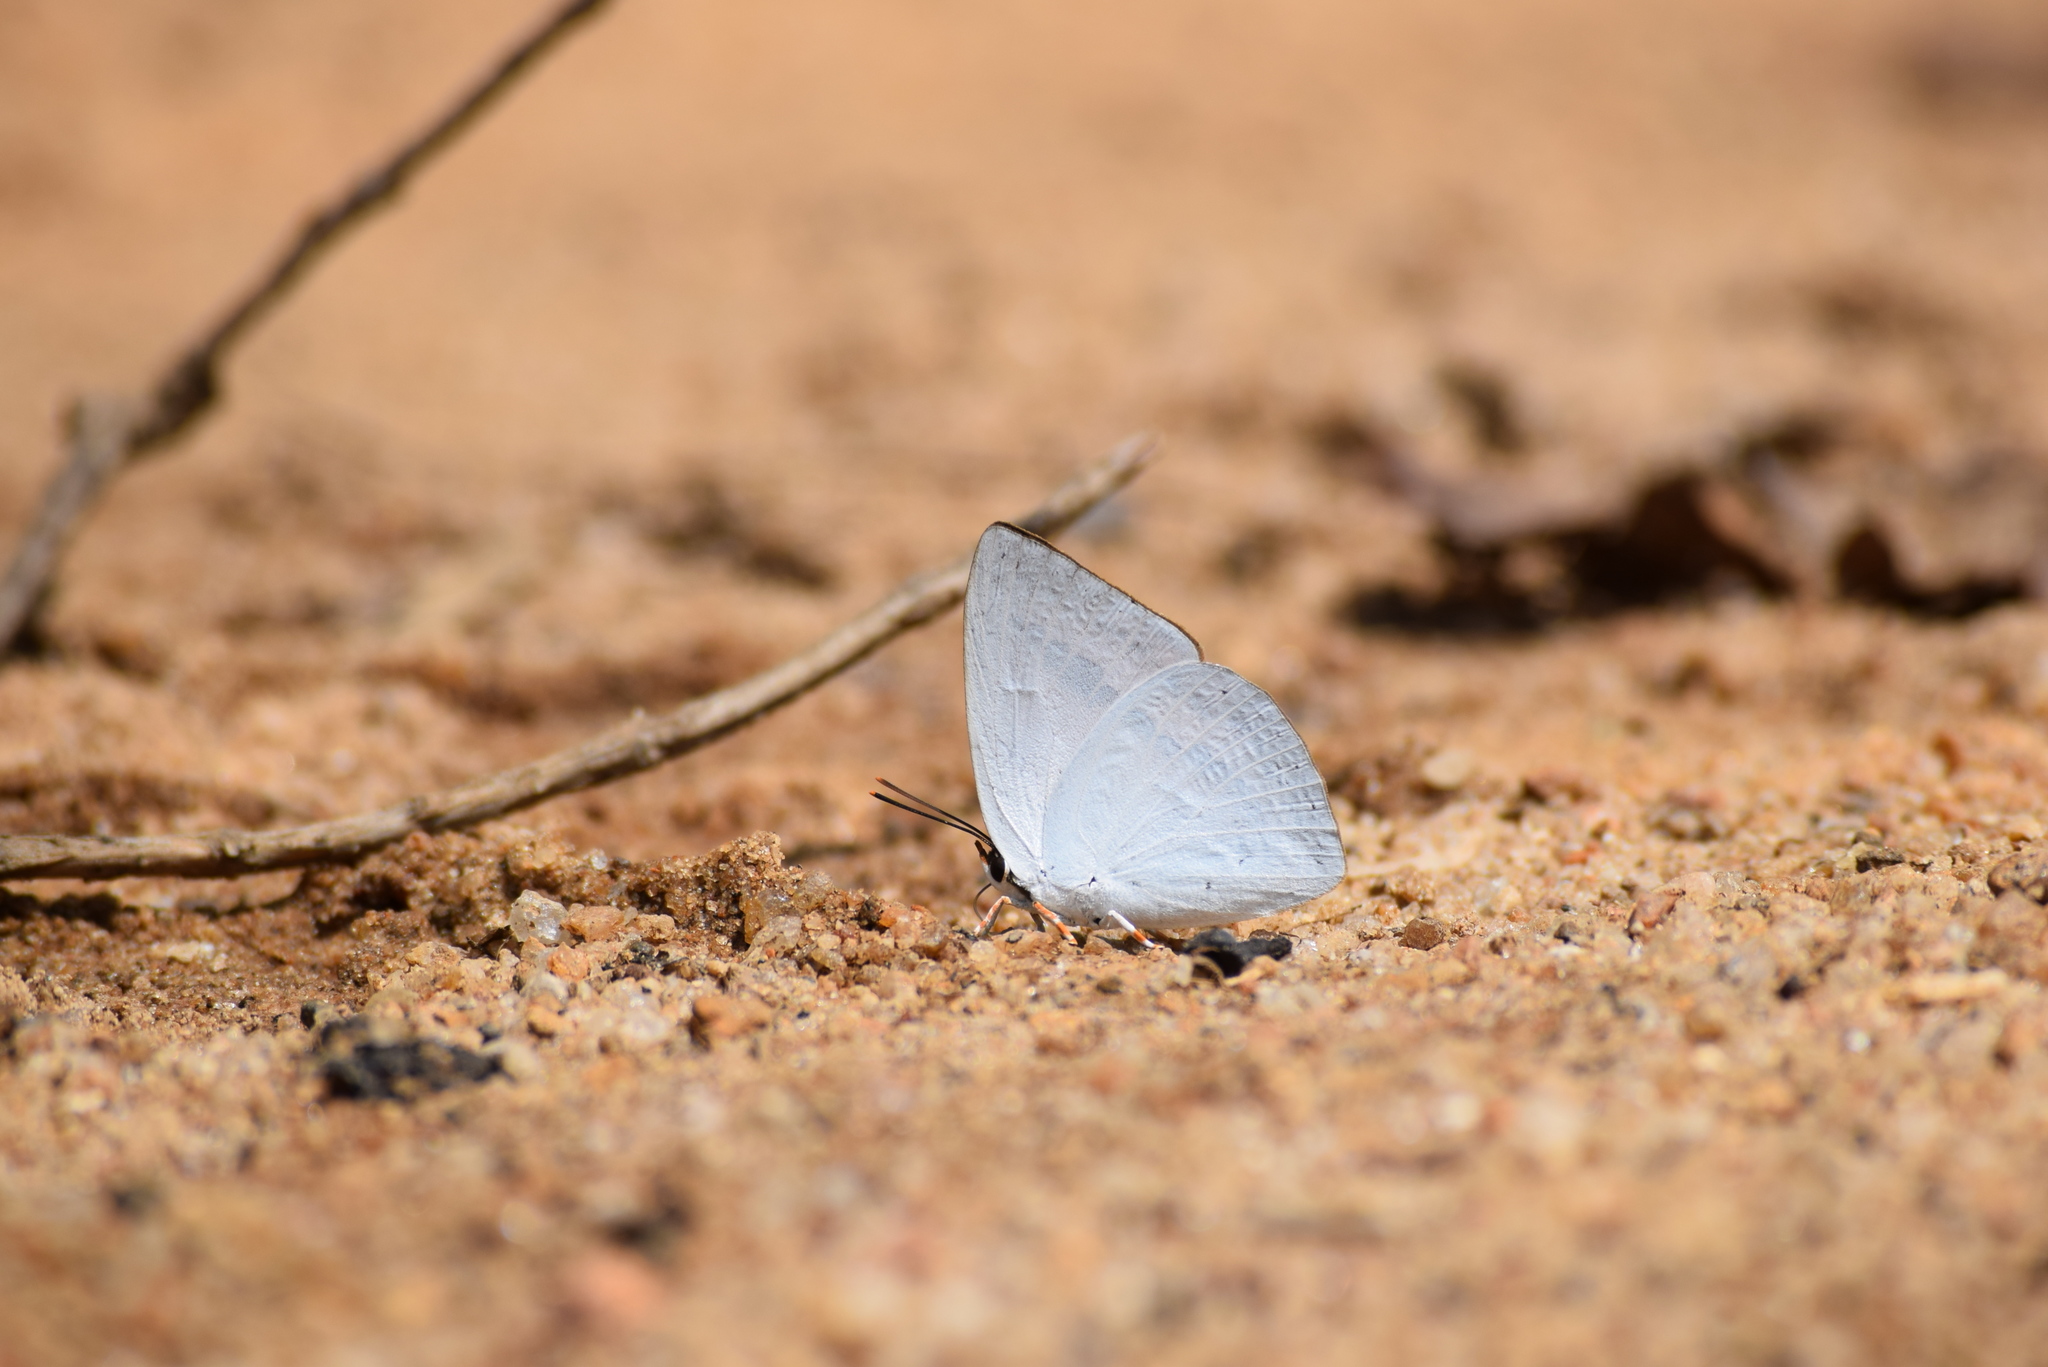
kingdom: Animalia
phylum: Arthropoda
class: Insecta
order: Lepidoptera
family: Lycaenidae
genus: Curetis
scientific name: Curetis thetis
